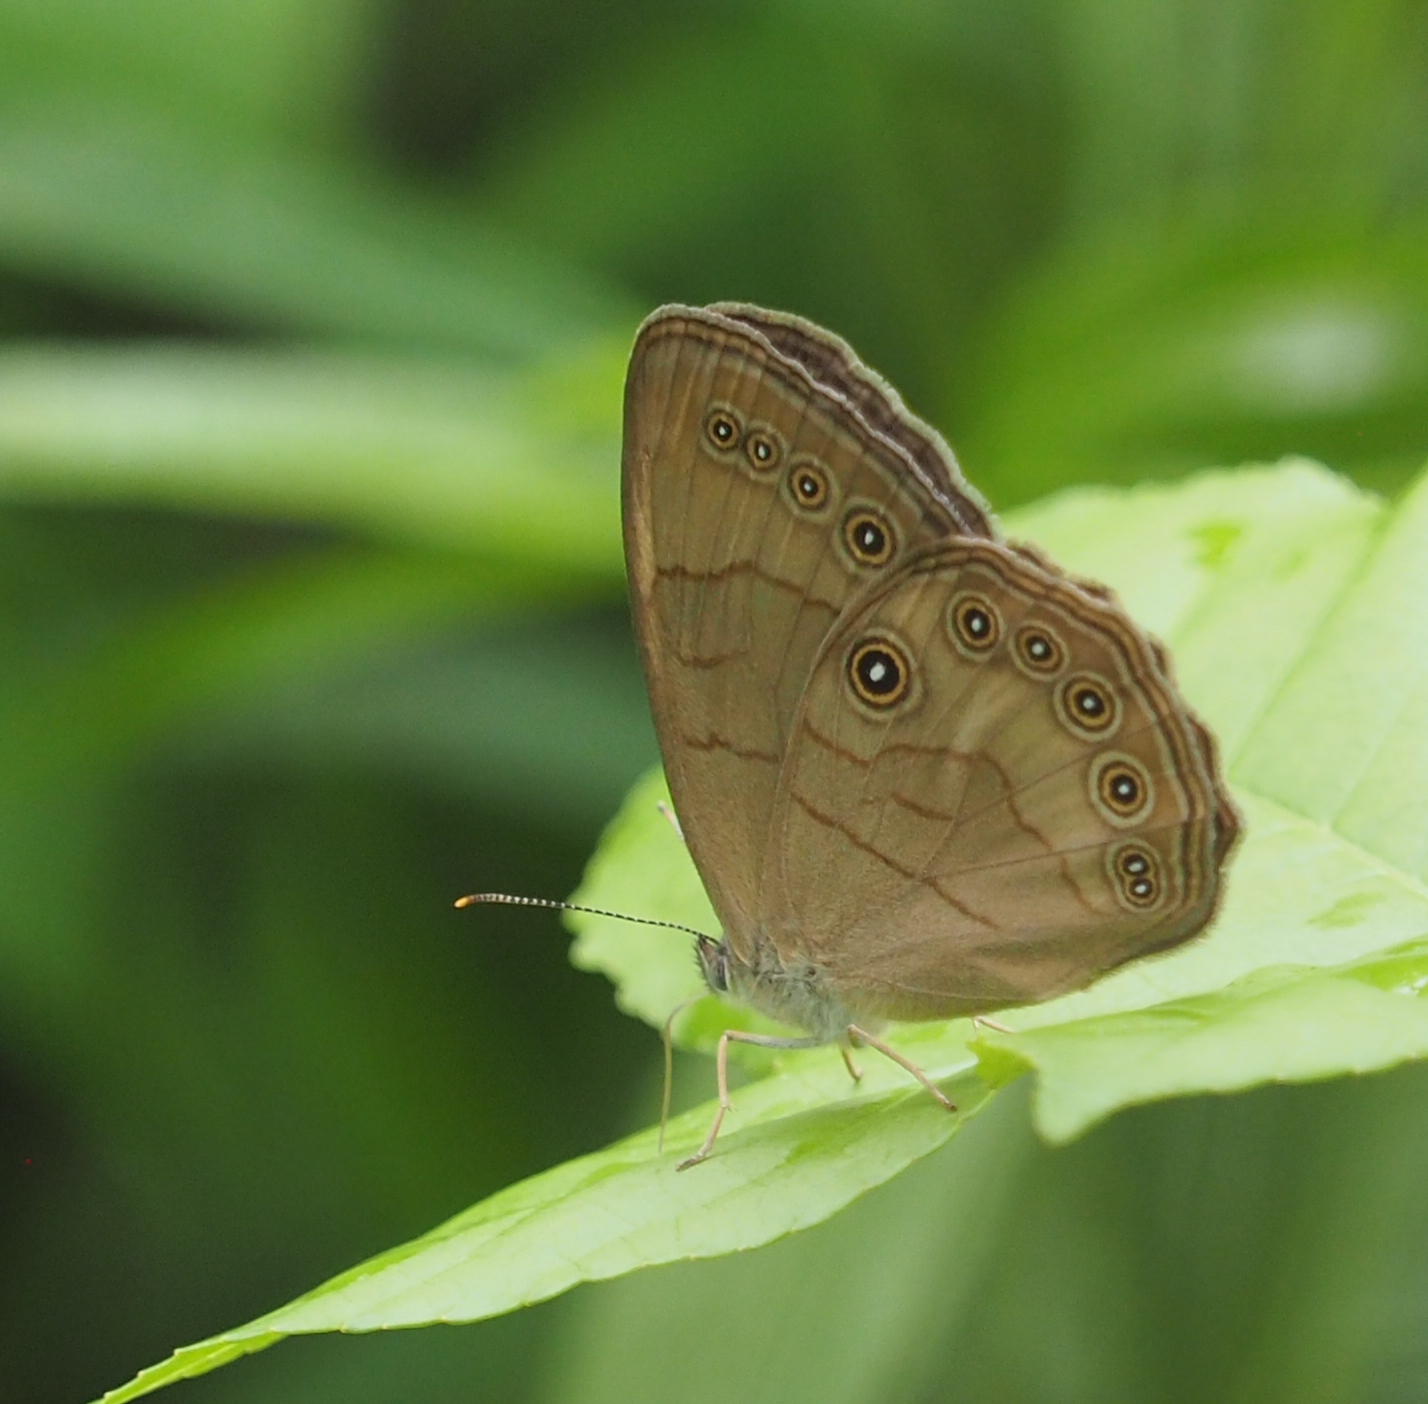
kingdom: Animalia
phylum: Arthropoda
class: Insecta
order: Lepidoptera
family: Nymphalidae
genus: Lethe
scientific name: Lethe eurydice
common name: Eyed brown
